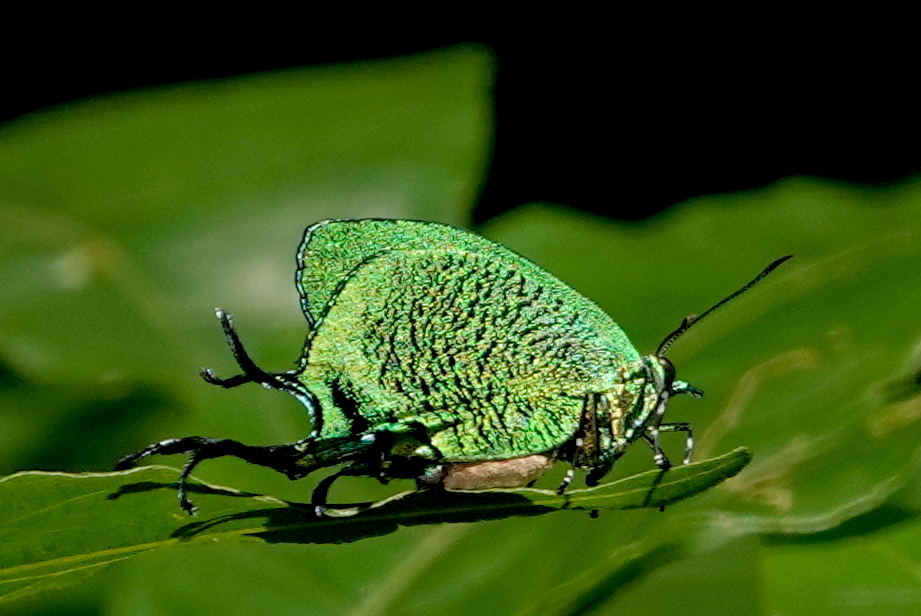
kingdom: Animalia
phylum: Arthropoda
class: Insecta
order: Lepidoptera
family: Lycaenidae
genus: Arcas
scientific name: Arcas imperialis
